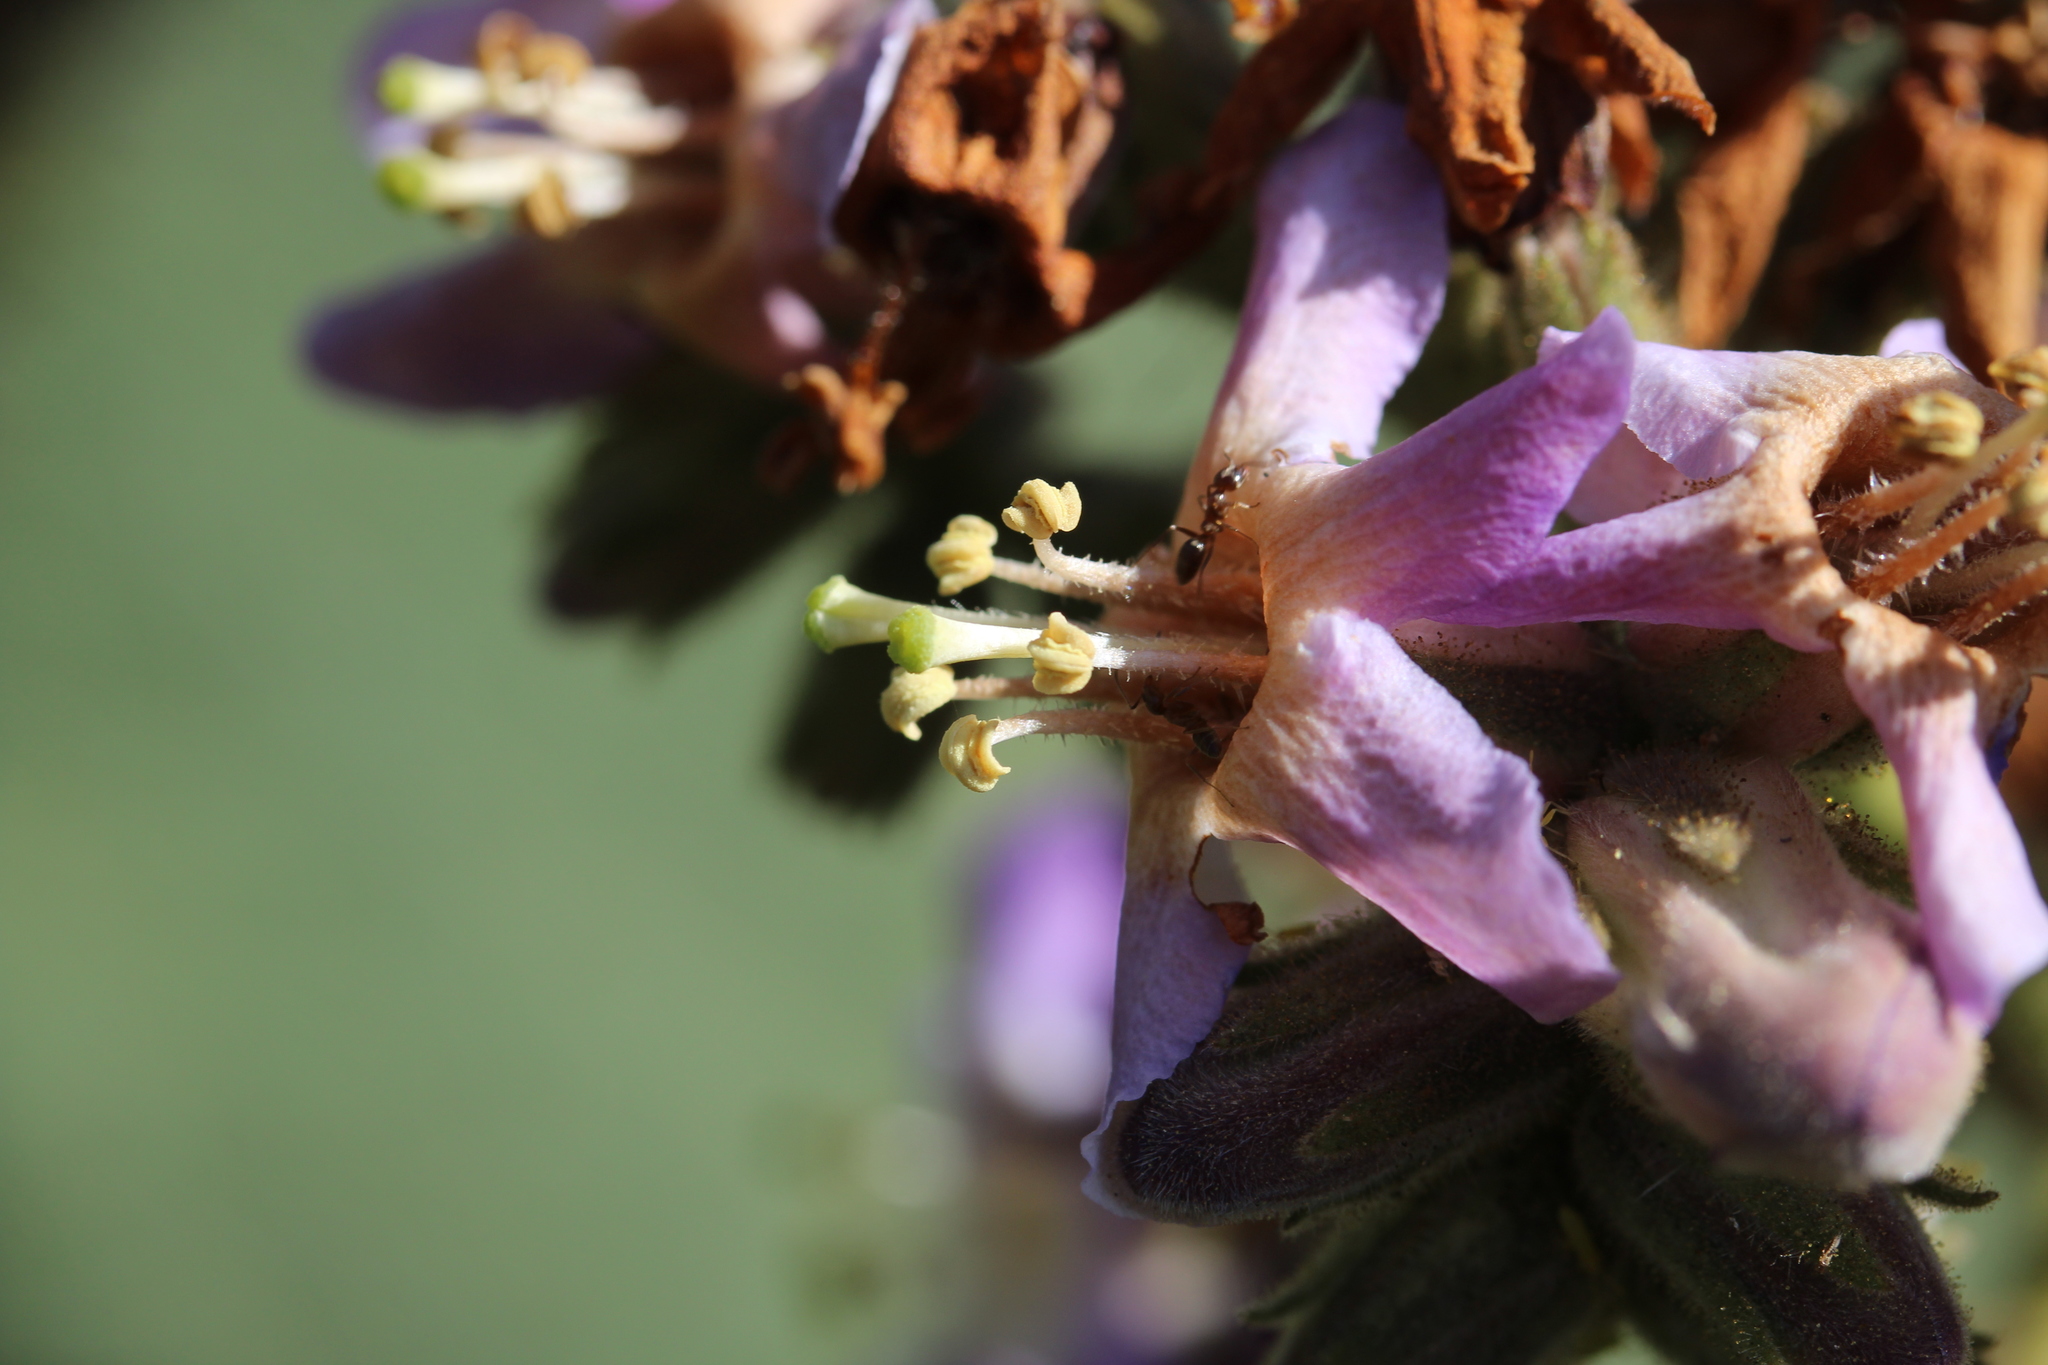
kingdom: Animalia
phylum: Arthropoda
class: Insecta
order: Hymenoptera
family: Formicidae
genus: Linepithema
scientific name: Linepithema humile
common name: Argentine ant
